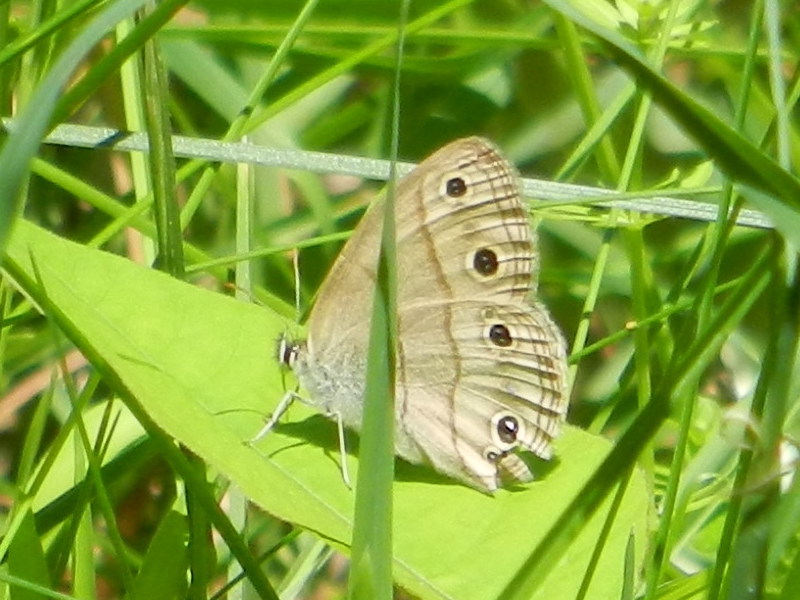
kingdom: Animalia
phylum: Arthropoda
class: Insecta
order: Lepidoptera
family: Nymphalidae
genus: Euptychia
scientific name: Euptychia cymela
